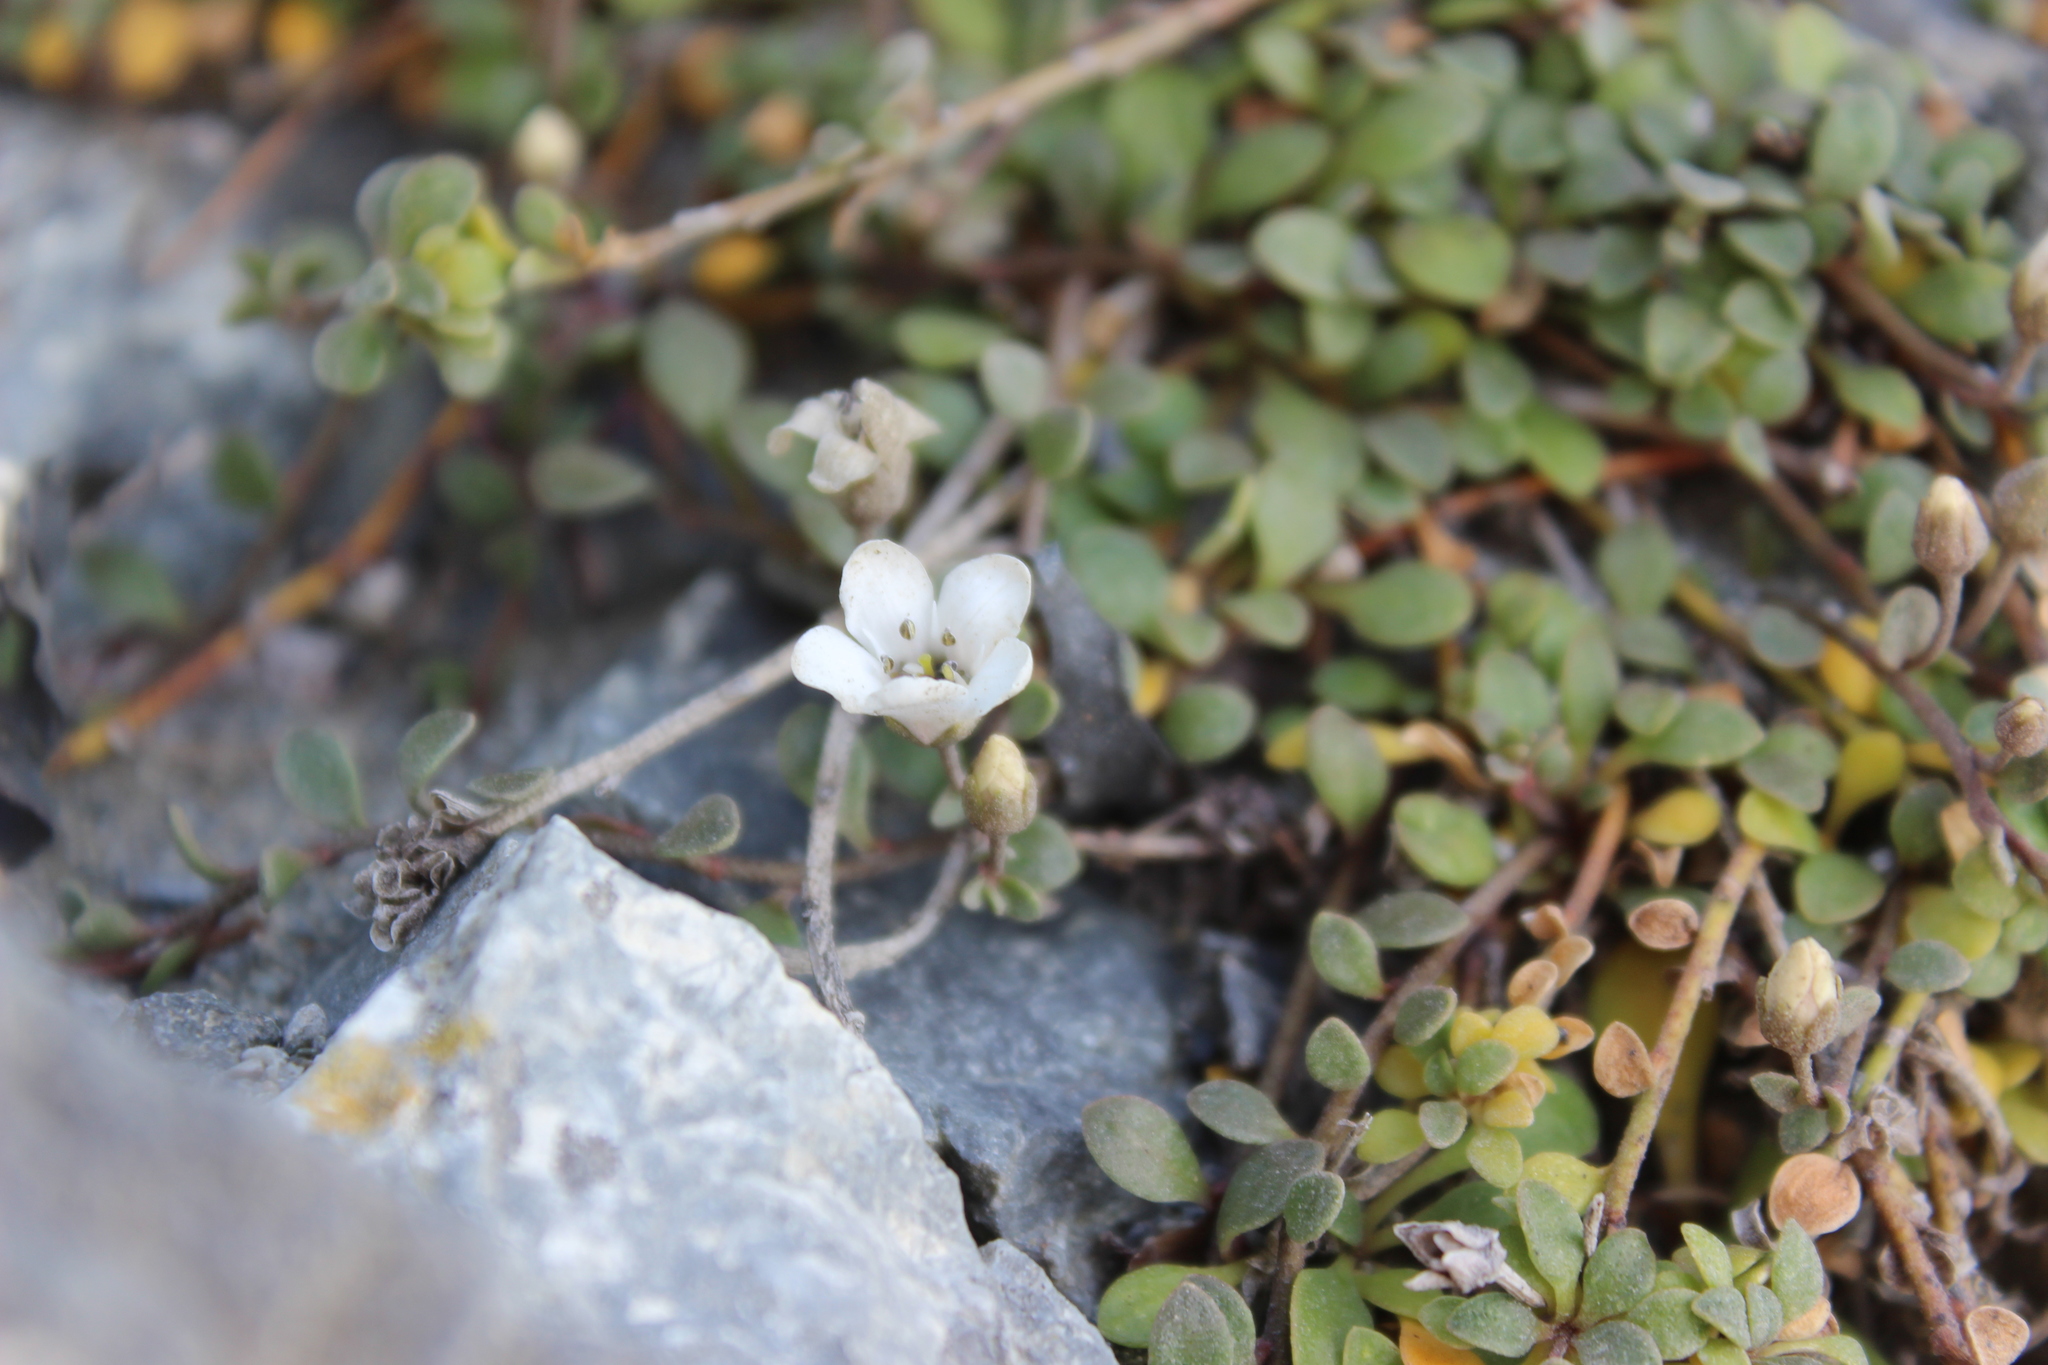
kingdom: Plantae
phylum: Tracheophyta
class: Magnoliopsida
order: Ericales
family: Primulaceae
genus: Samolus
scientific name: Samolus repens
